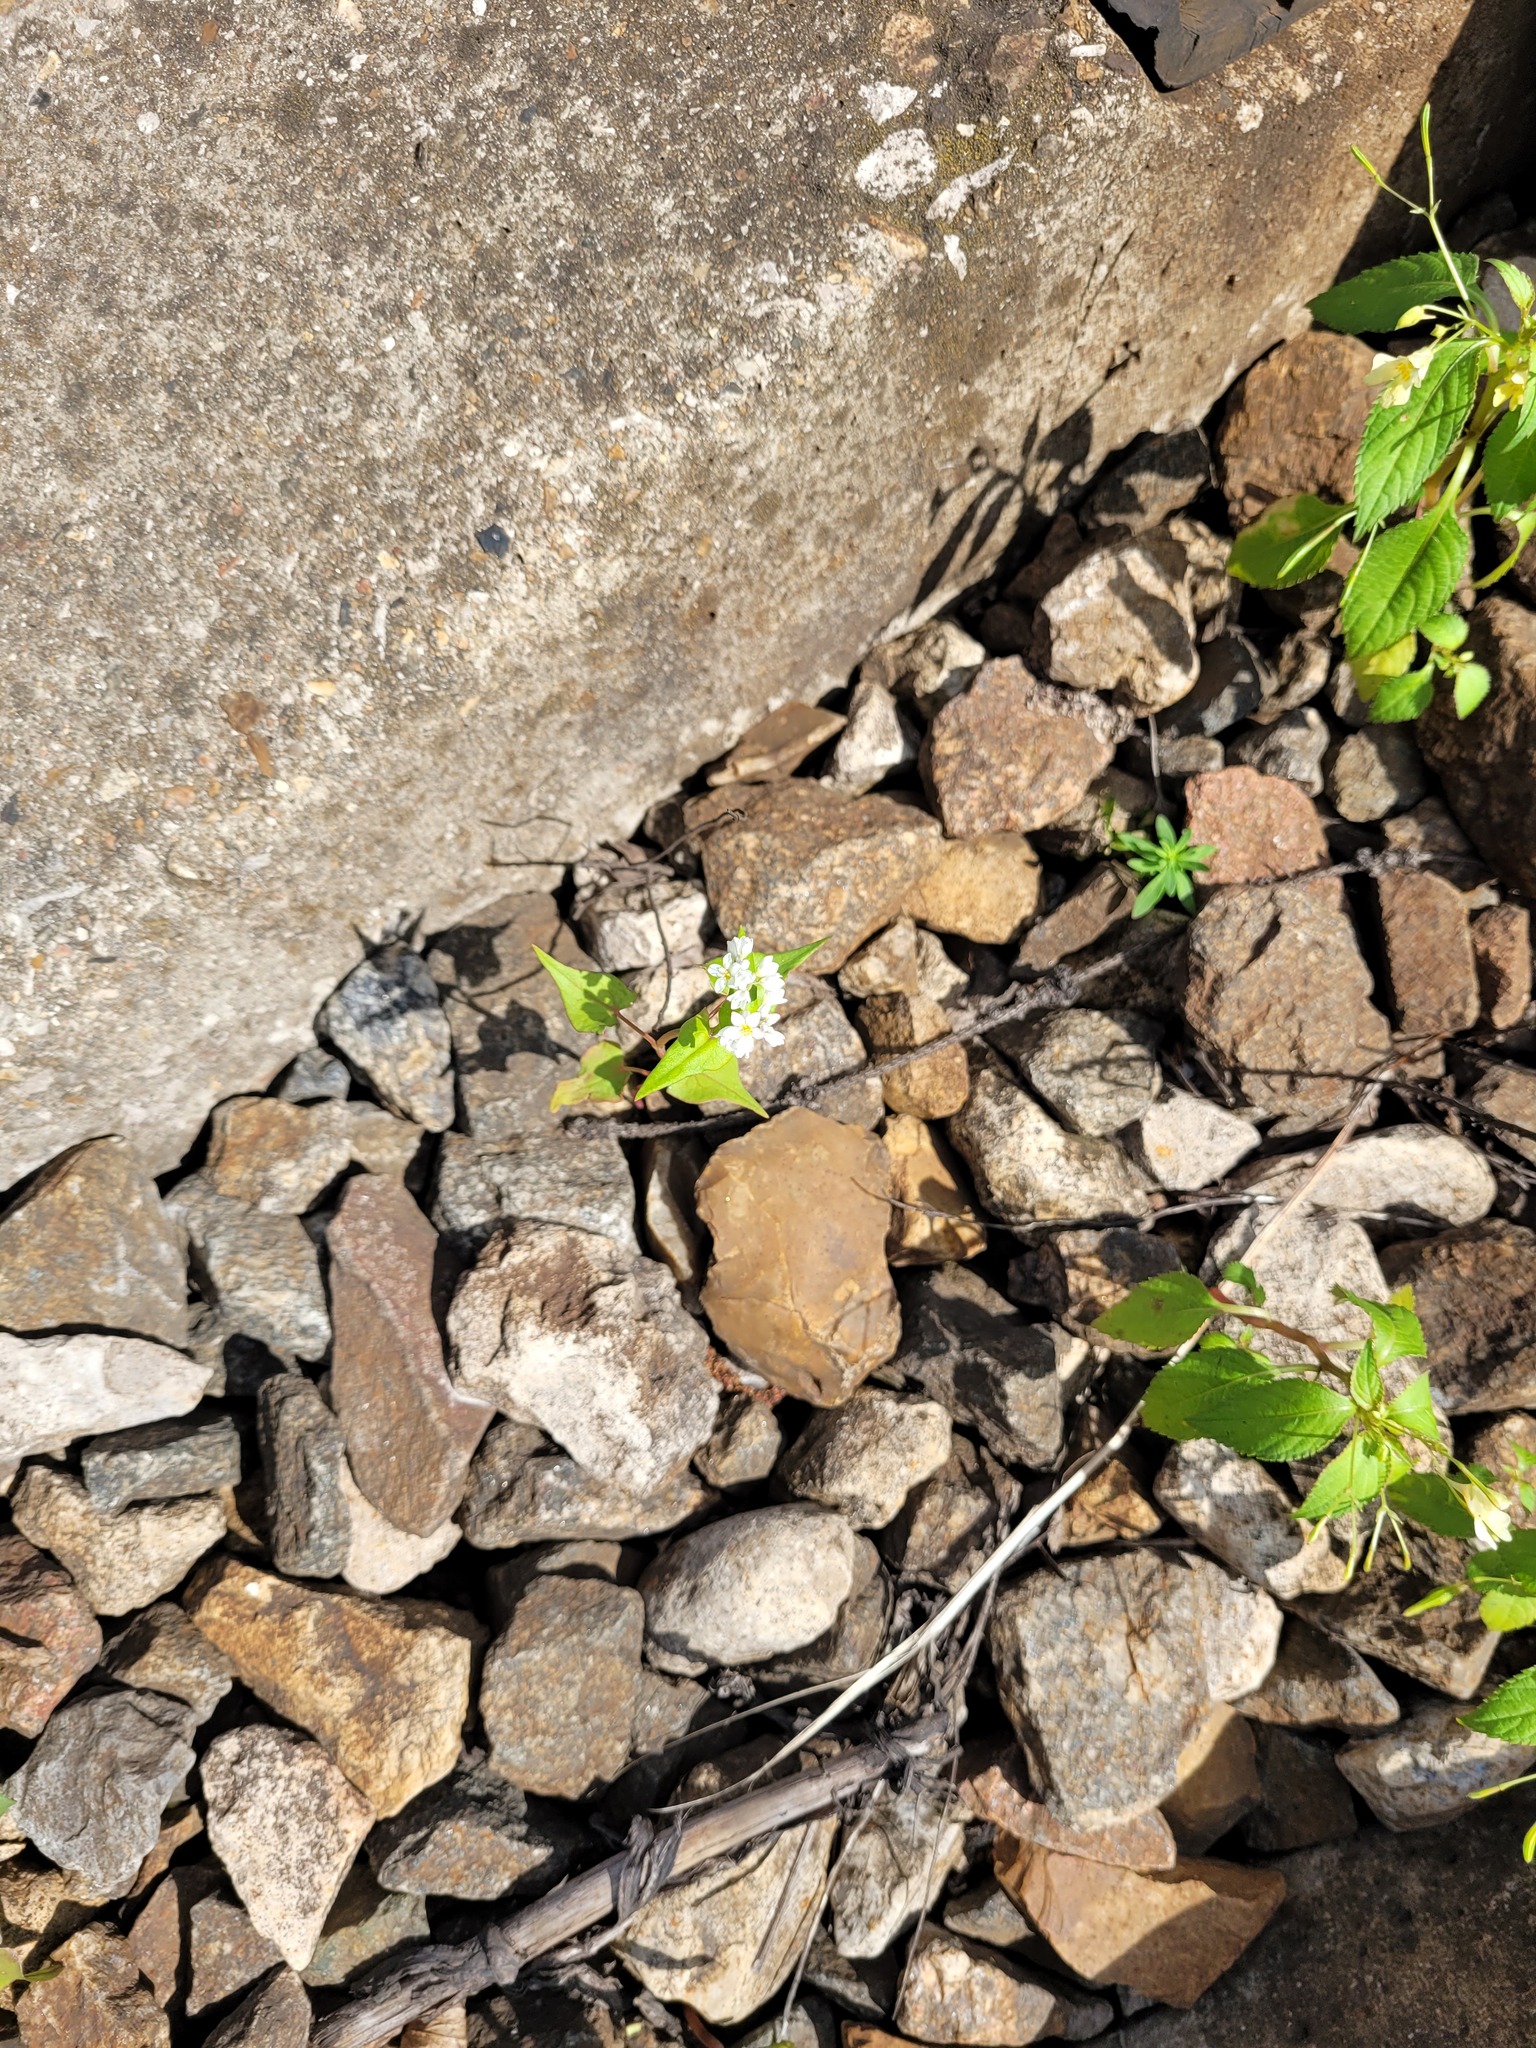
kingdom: Plantae
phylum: Tracheophyta
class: Magnoliopsida
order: Caryophyllales
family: Polygonaceae
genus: Fagopyrum
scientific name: Fagopyrum esculentum
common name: Buckwheat
